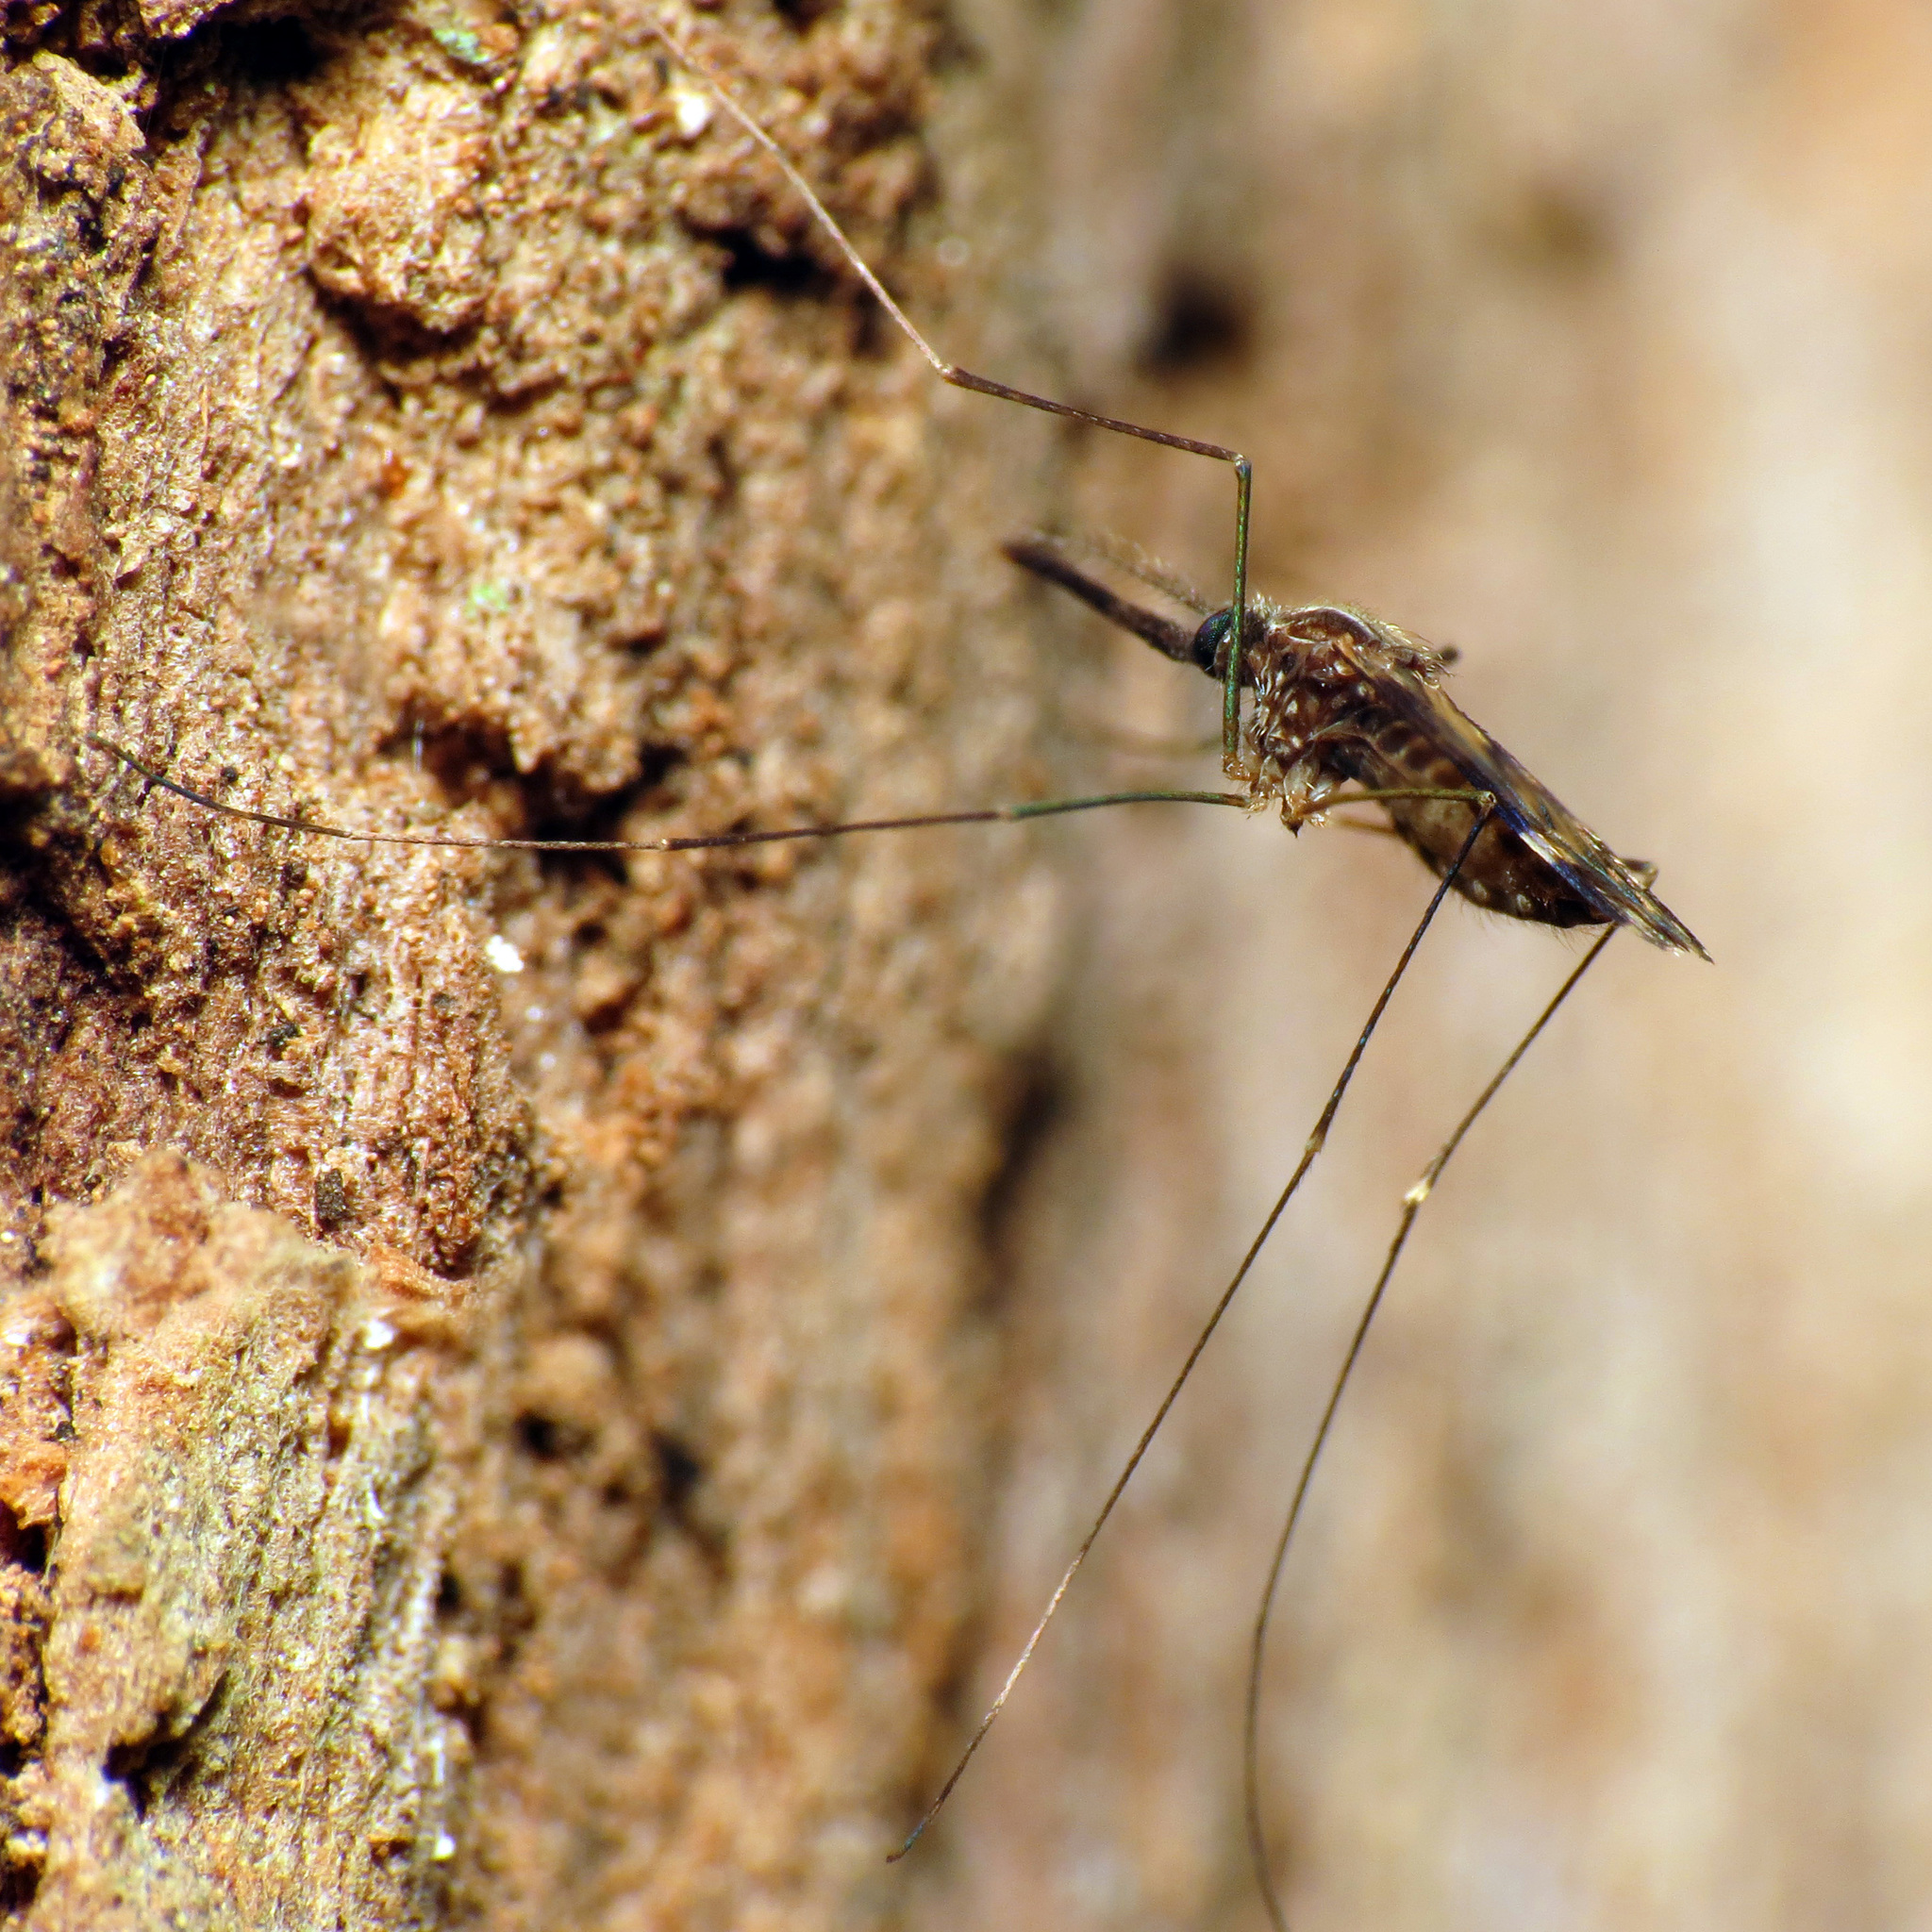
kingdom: Animalia
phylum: Arthropoda
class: Insecta
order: Diptera
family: Culicidae
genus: Anopheles
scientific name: Anopheles punctipennis
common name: Woodland malaria mosquito
